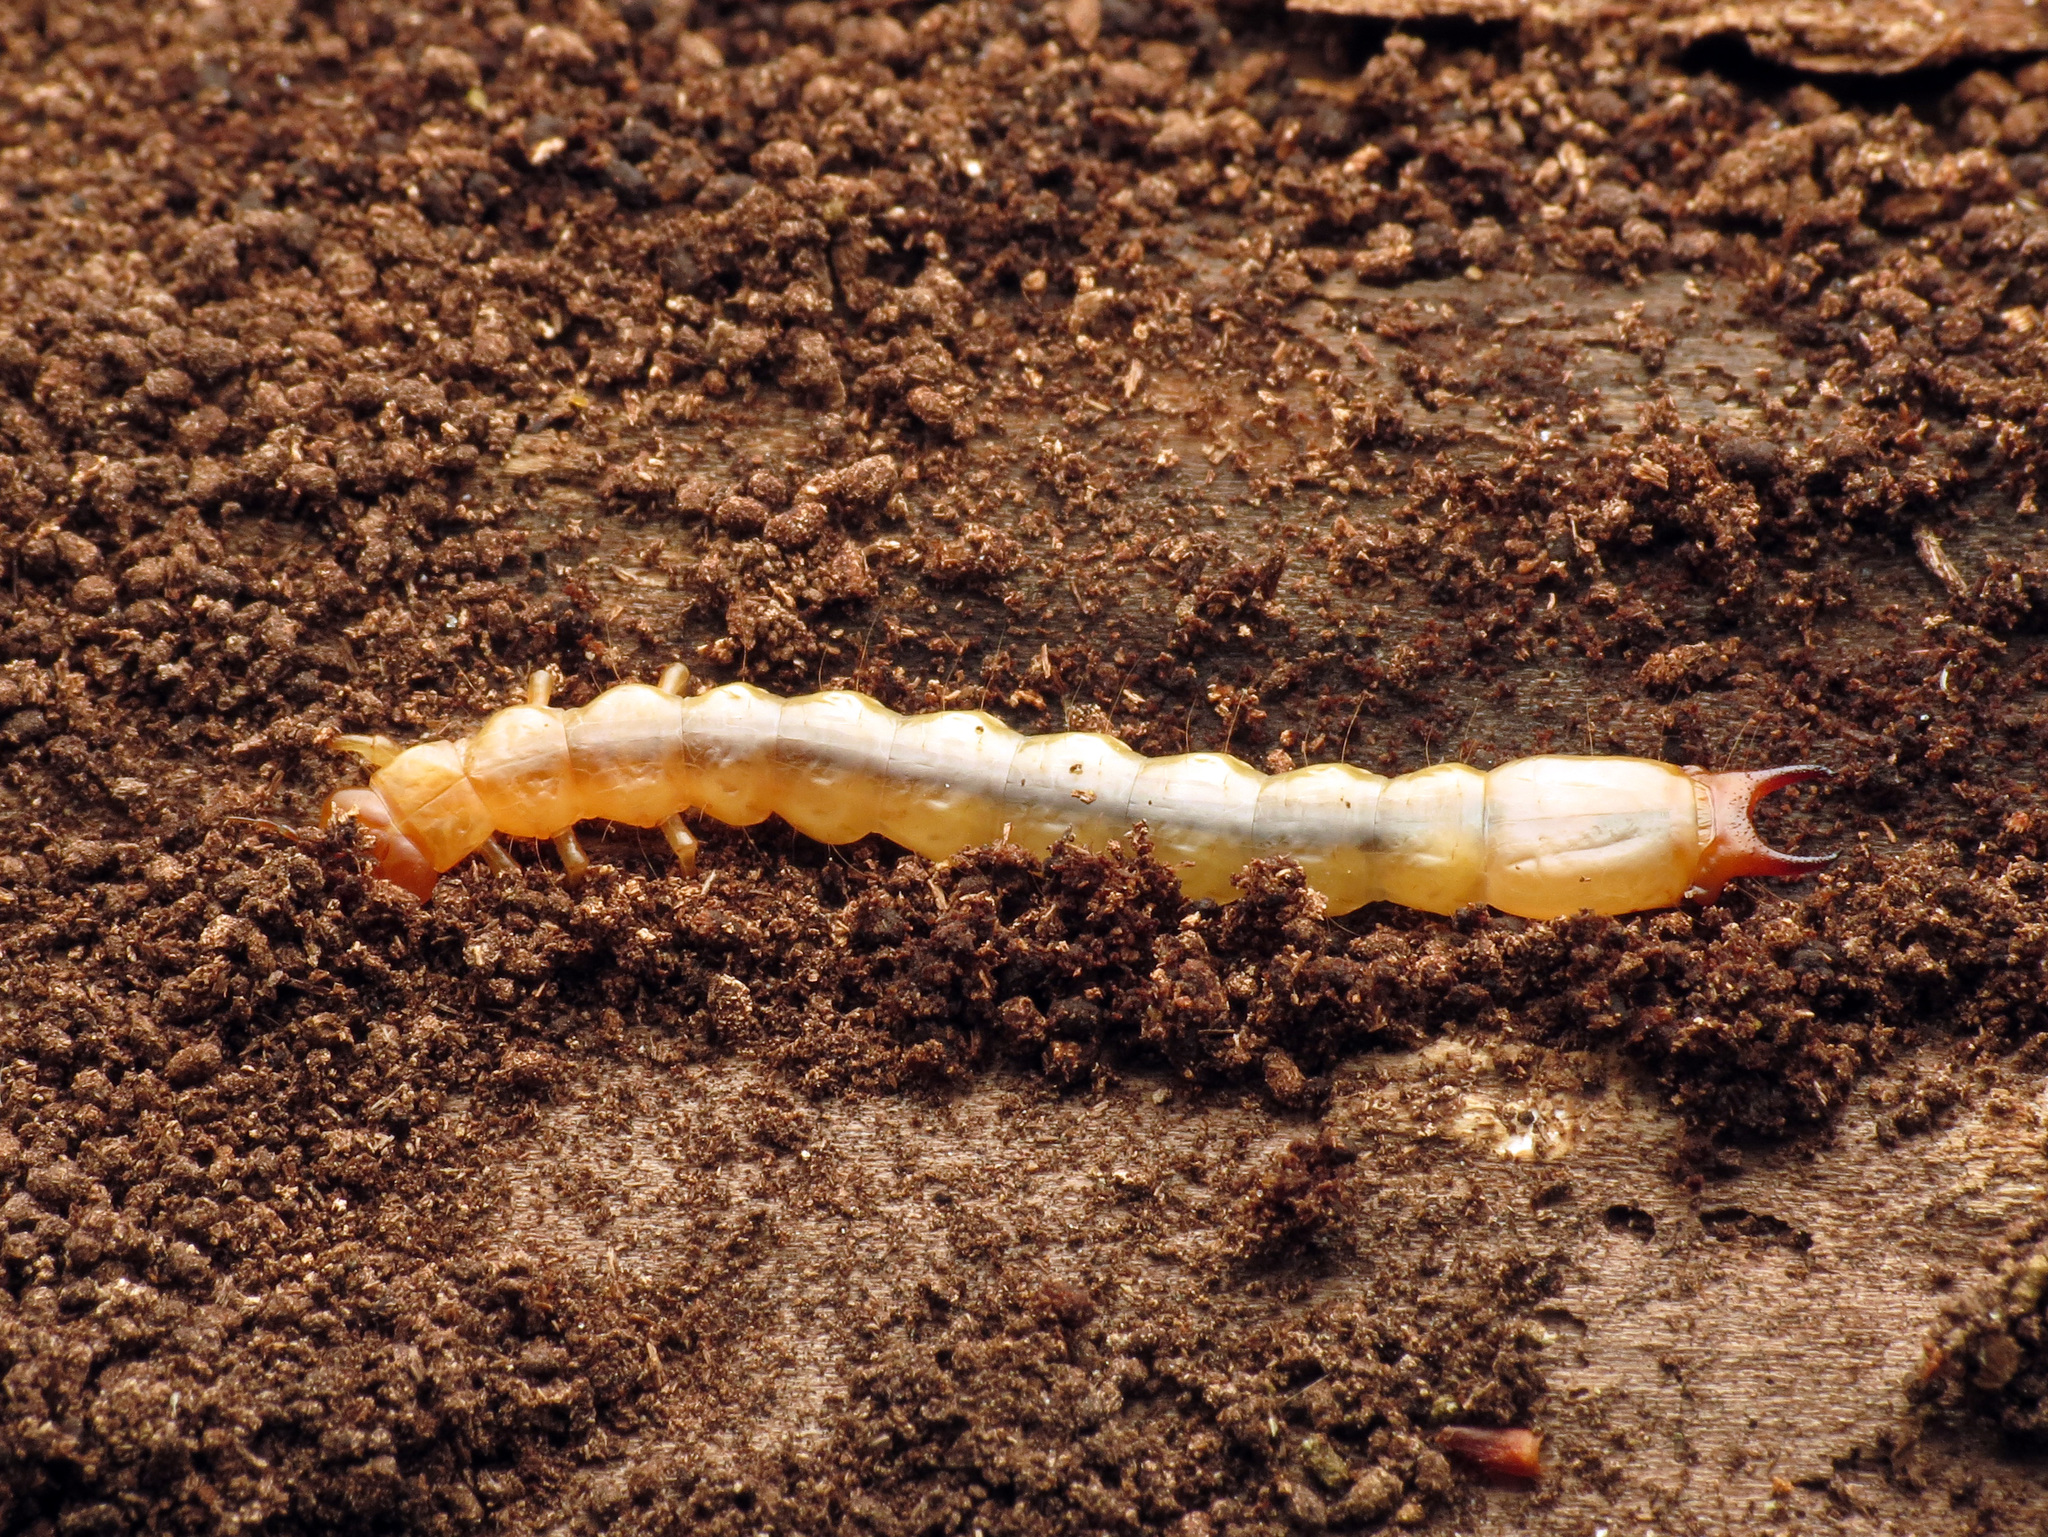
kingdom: Animalia
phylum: Arthropoda
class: Insecta
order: Coleoptera
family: Pyrochroidae
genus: Dendroides
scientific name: Dendroides canadensis
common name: Canada fire-colored beetle
